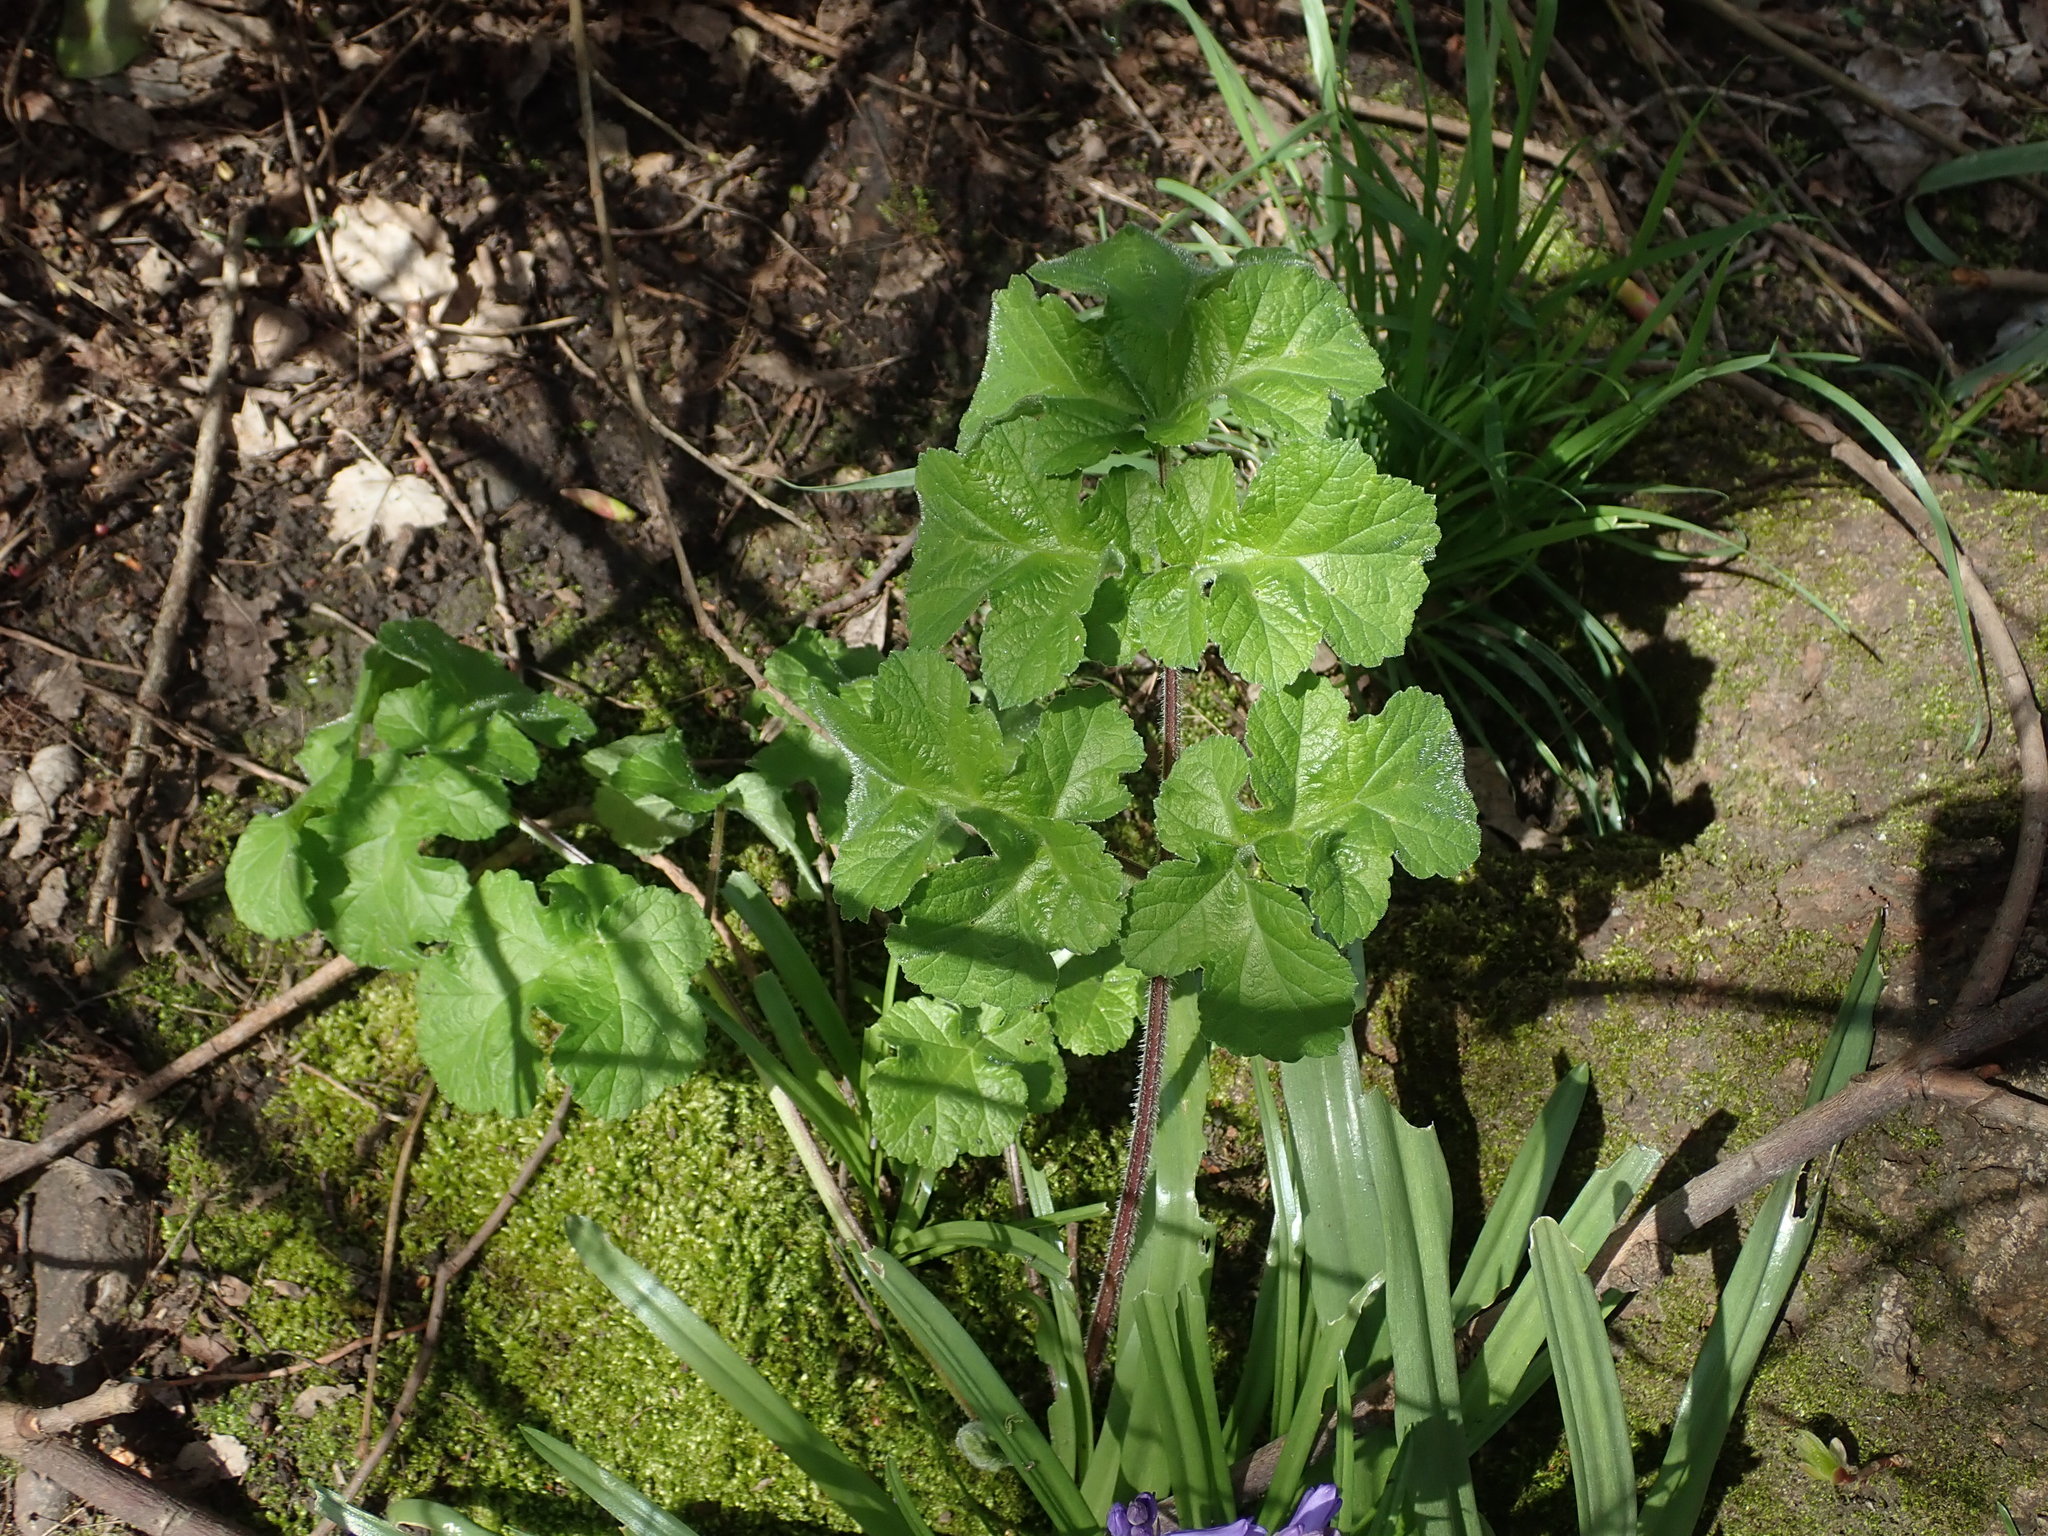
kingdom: Plantae
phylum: Tracheophyta
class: Magnoliopsida
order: Apiales
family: Apiaceae
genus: Heracleum
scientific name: Heracleum sphondylium
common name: Hogweed
